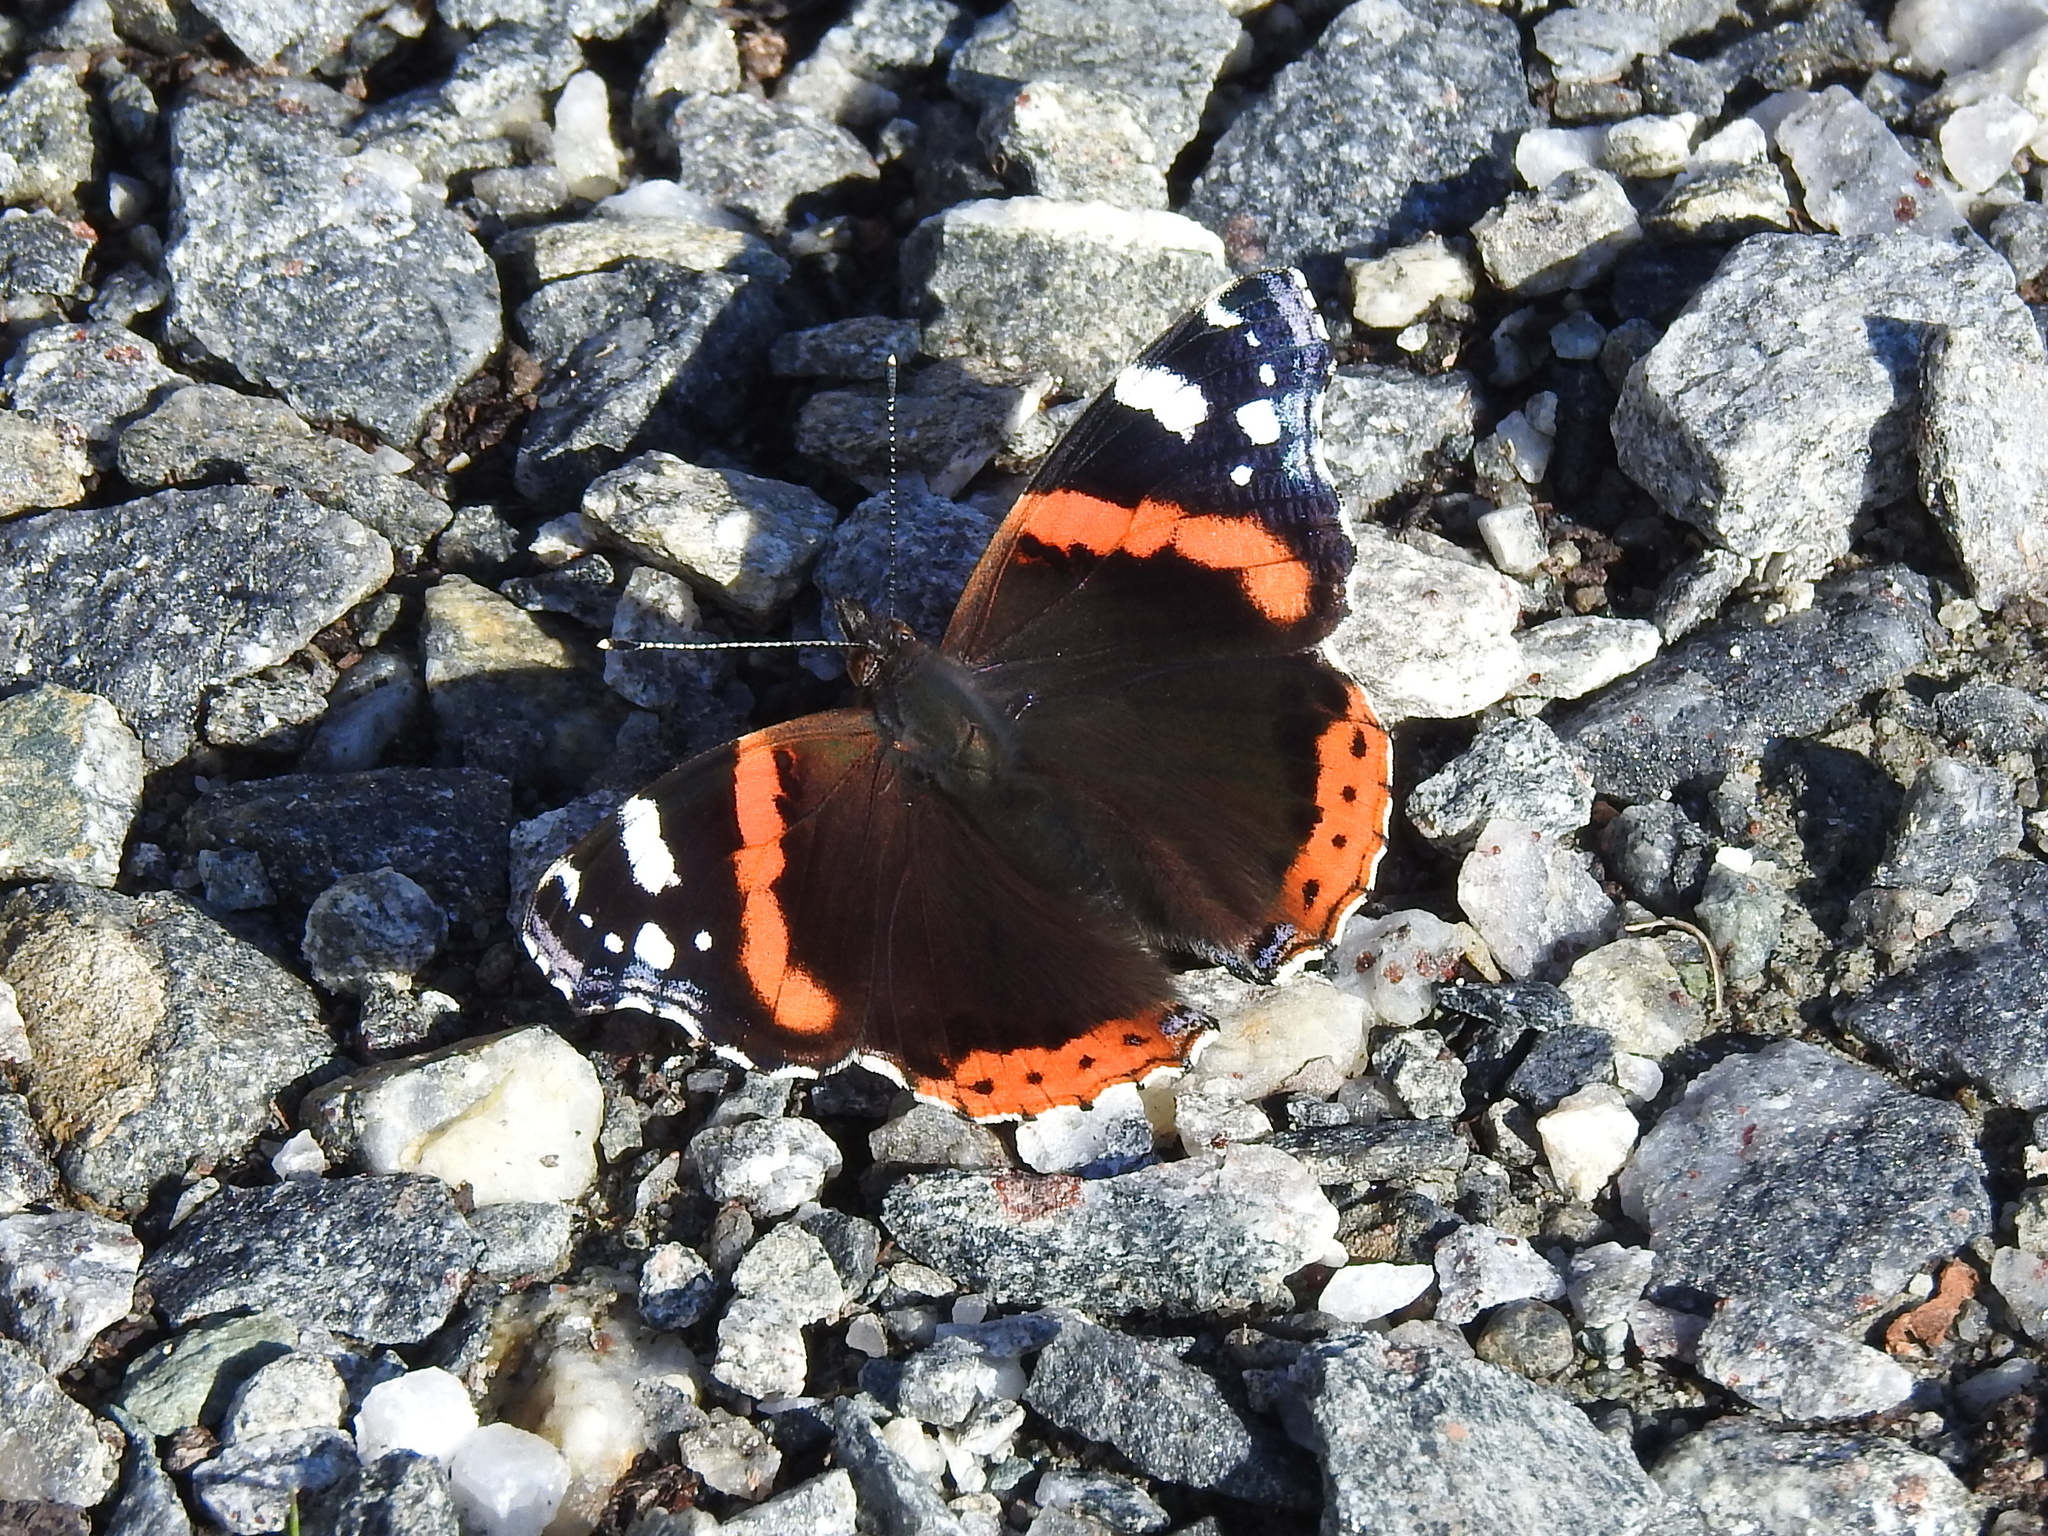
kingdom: Animalia
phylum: Arthropoda
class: Insecta
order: Lepidoptera
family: Nymphalidae
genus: Vanessa
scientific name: Vanessa atalanta
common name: Red admiral
